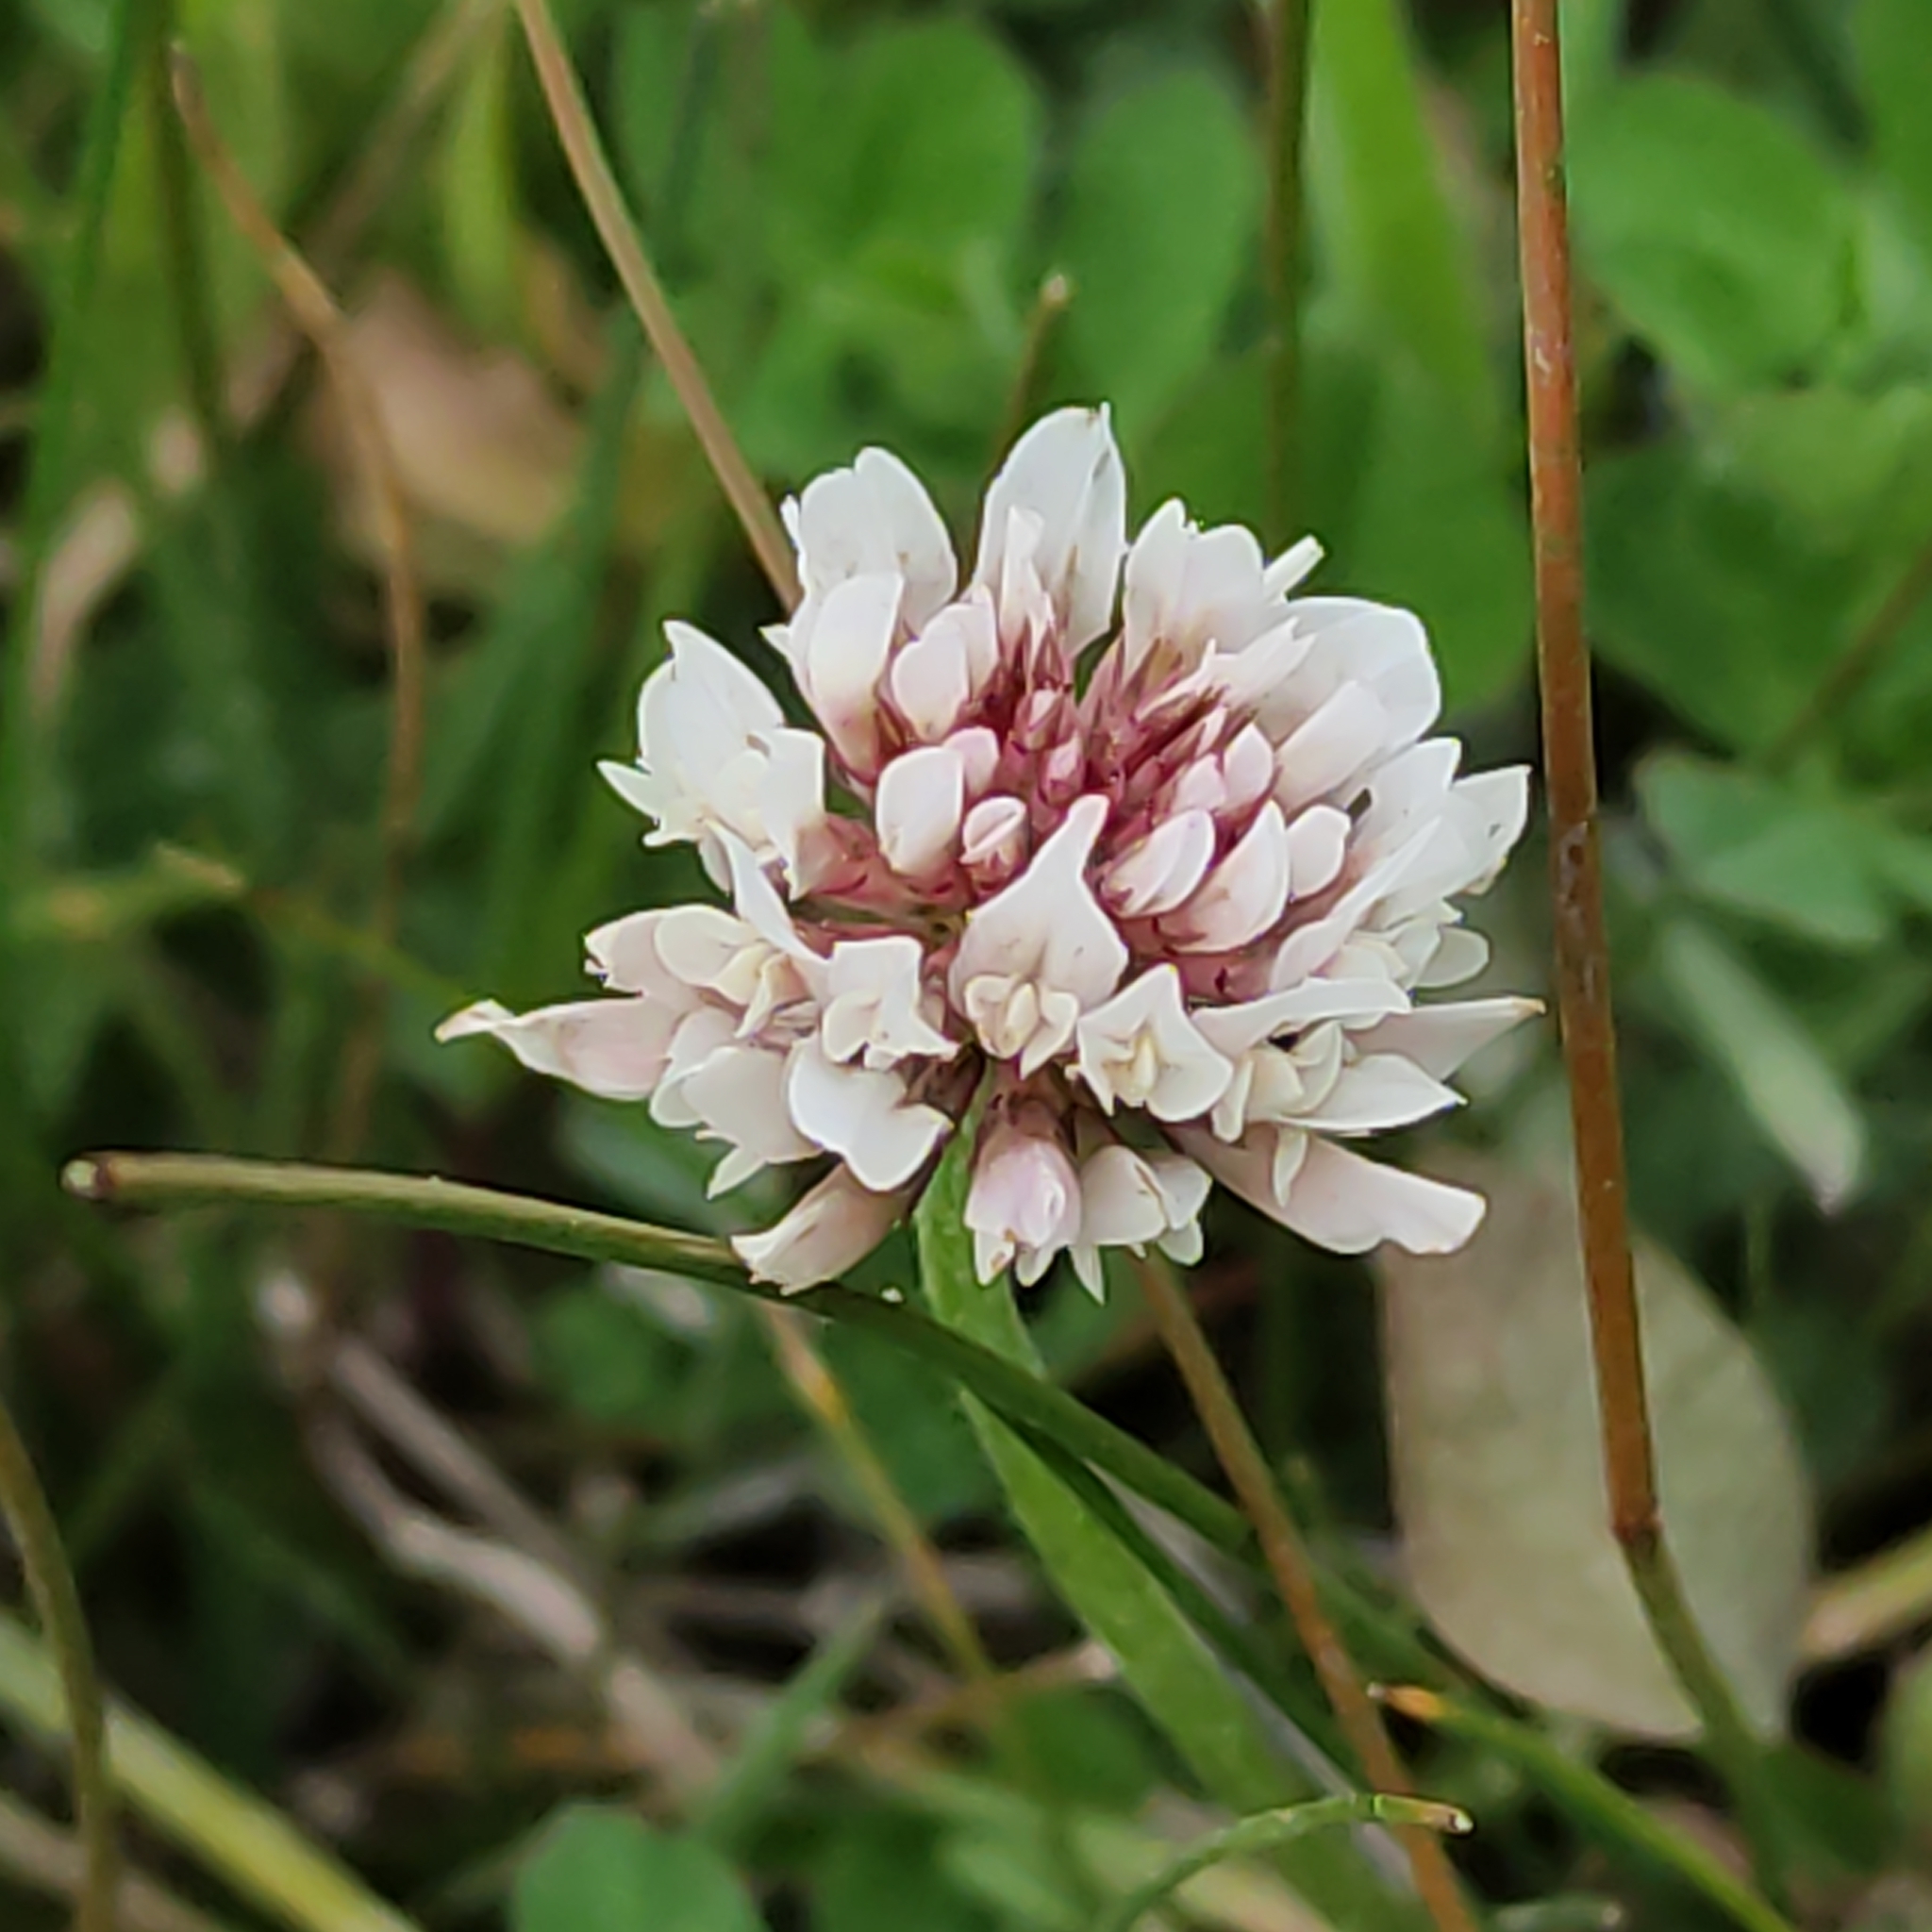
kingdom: Plantae
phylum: Tracheophyta
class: Magnoliopsida
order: Fabales
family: Fabaceae
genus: Trifolium
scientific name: Trifolium repens
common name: White clover
